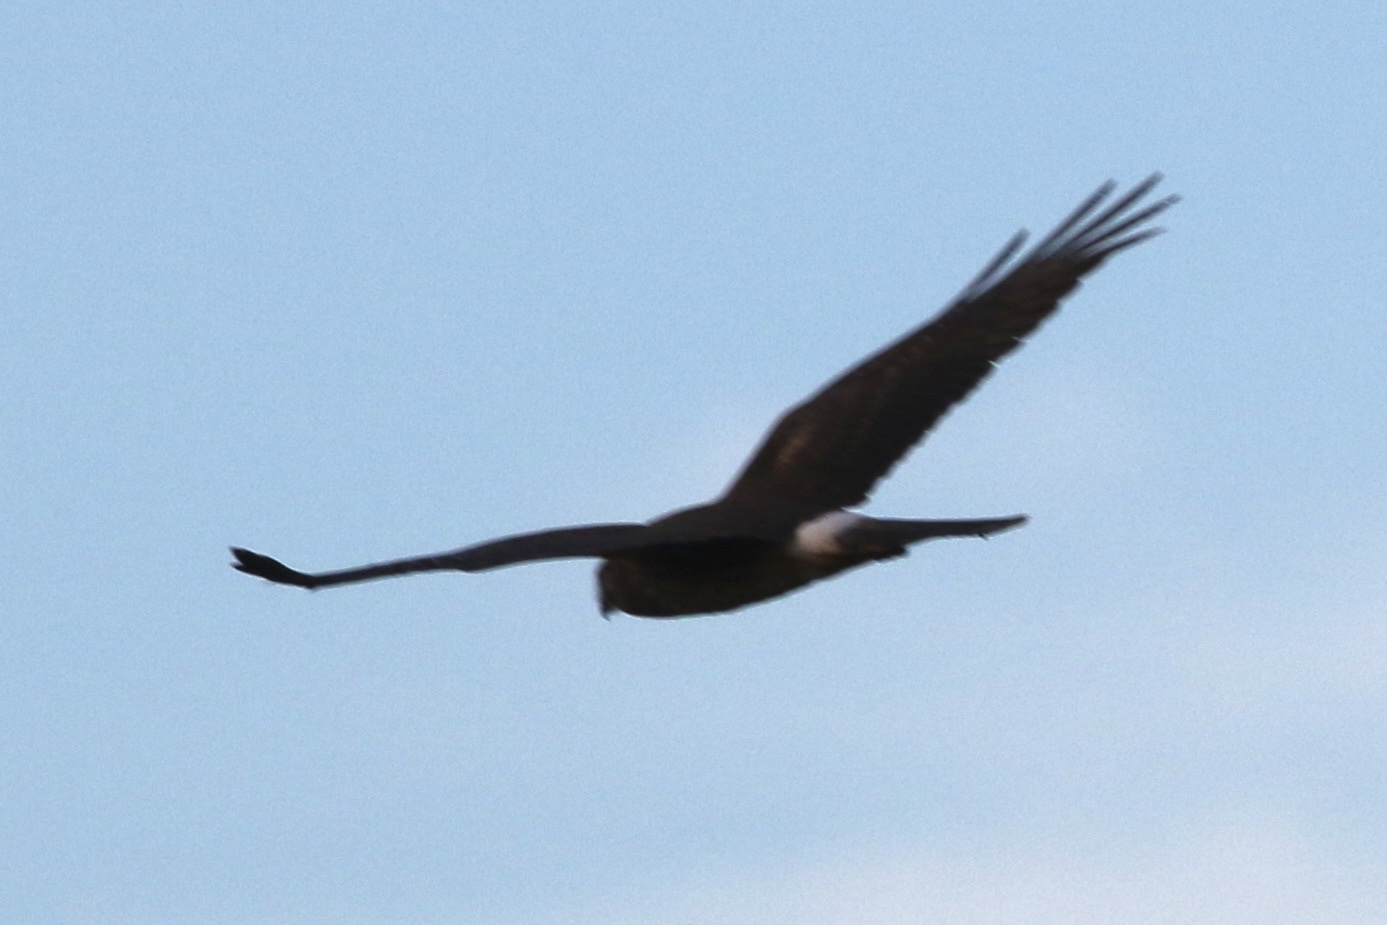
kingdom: Animalia
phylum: Chordata
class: Aves
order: Accipitriformes
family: Accipitridae
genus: Circus
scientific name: Circus cyaneus
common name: Hen harrier
